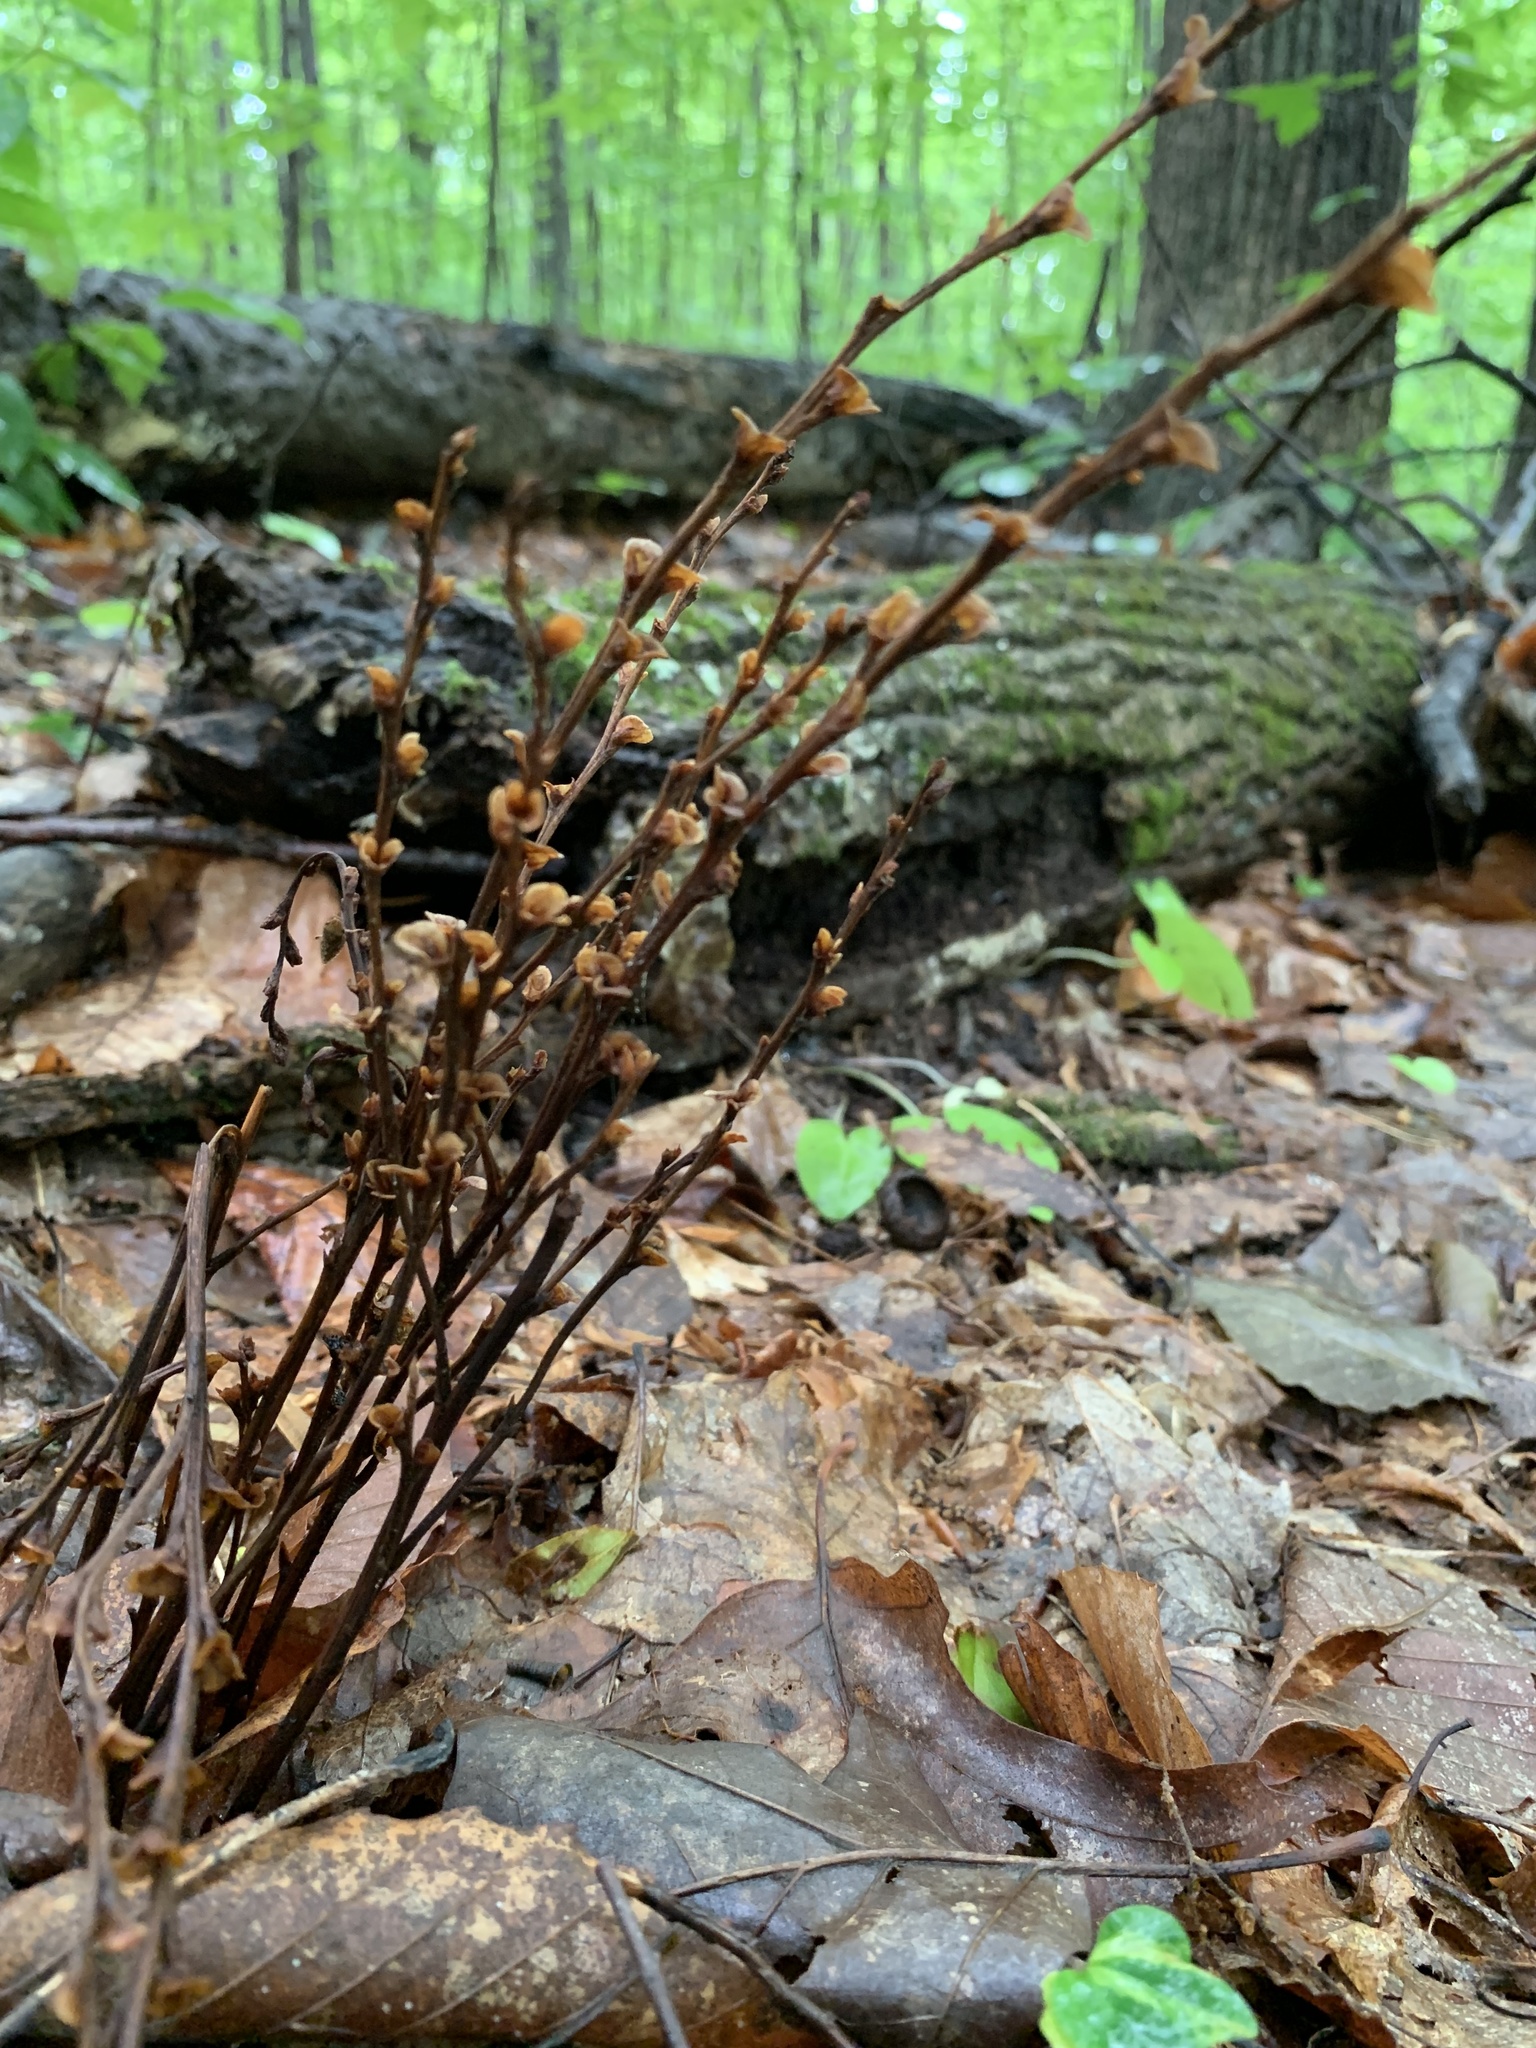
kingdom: Plantae
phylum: Tracheophyta
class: Magnoliopsida
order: Lamiales
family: Orobanchaceae
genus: Epifagus
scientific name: Epifagus virginiana
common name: Beechdrops
